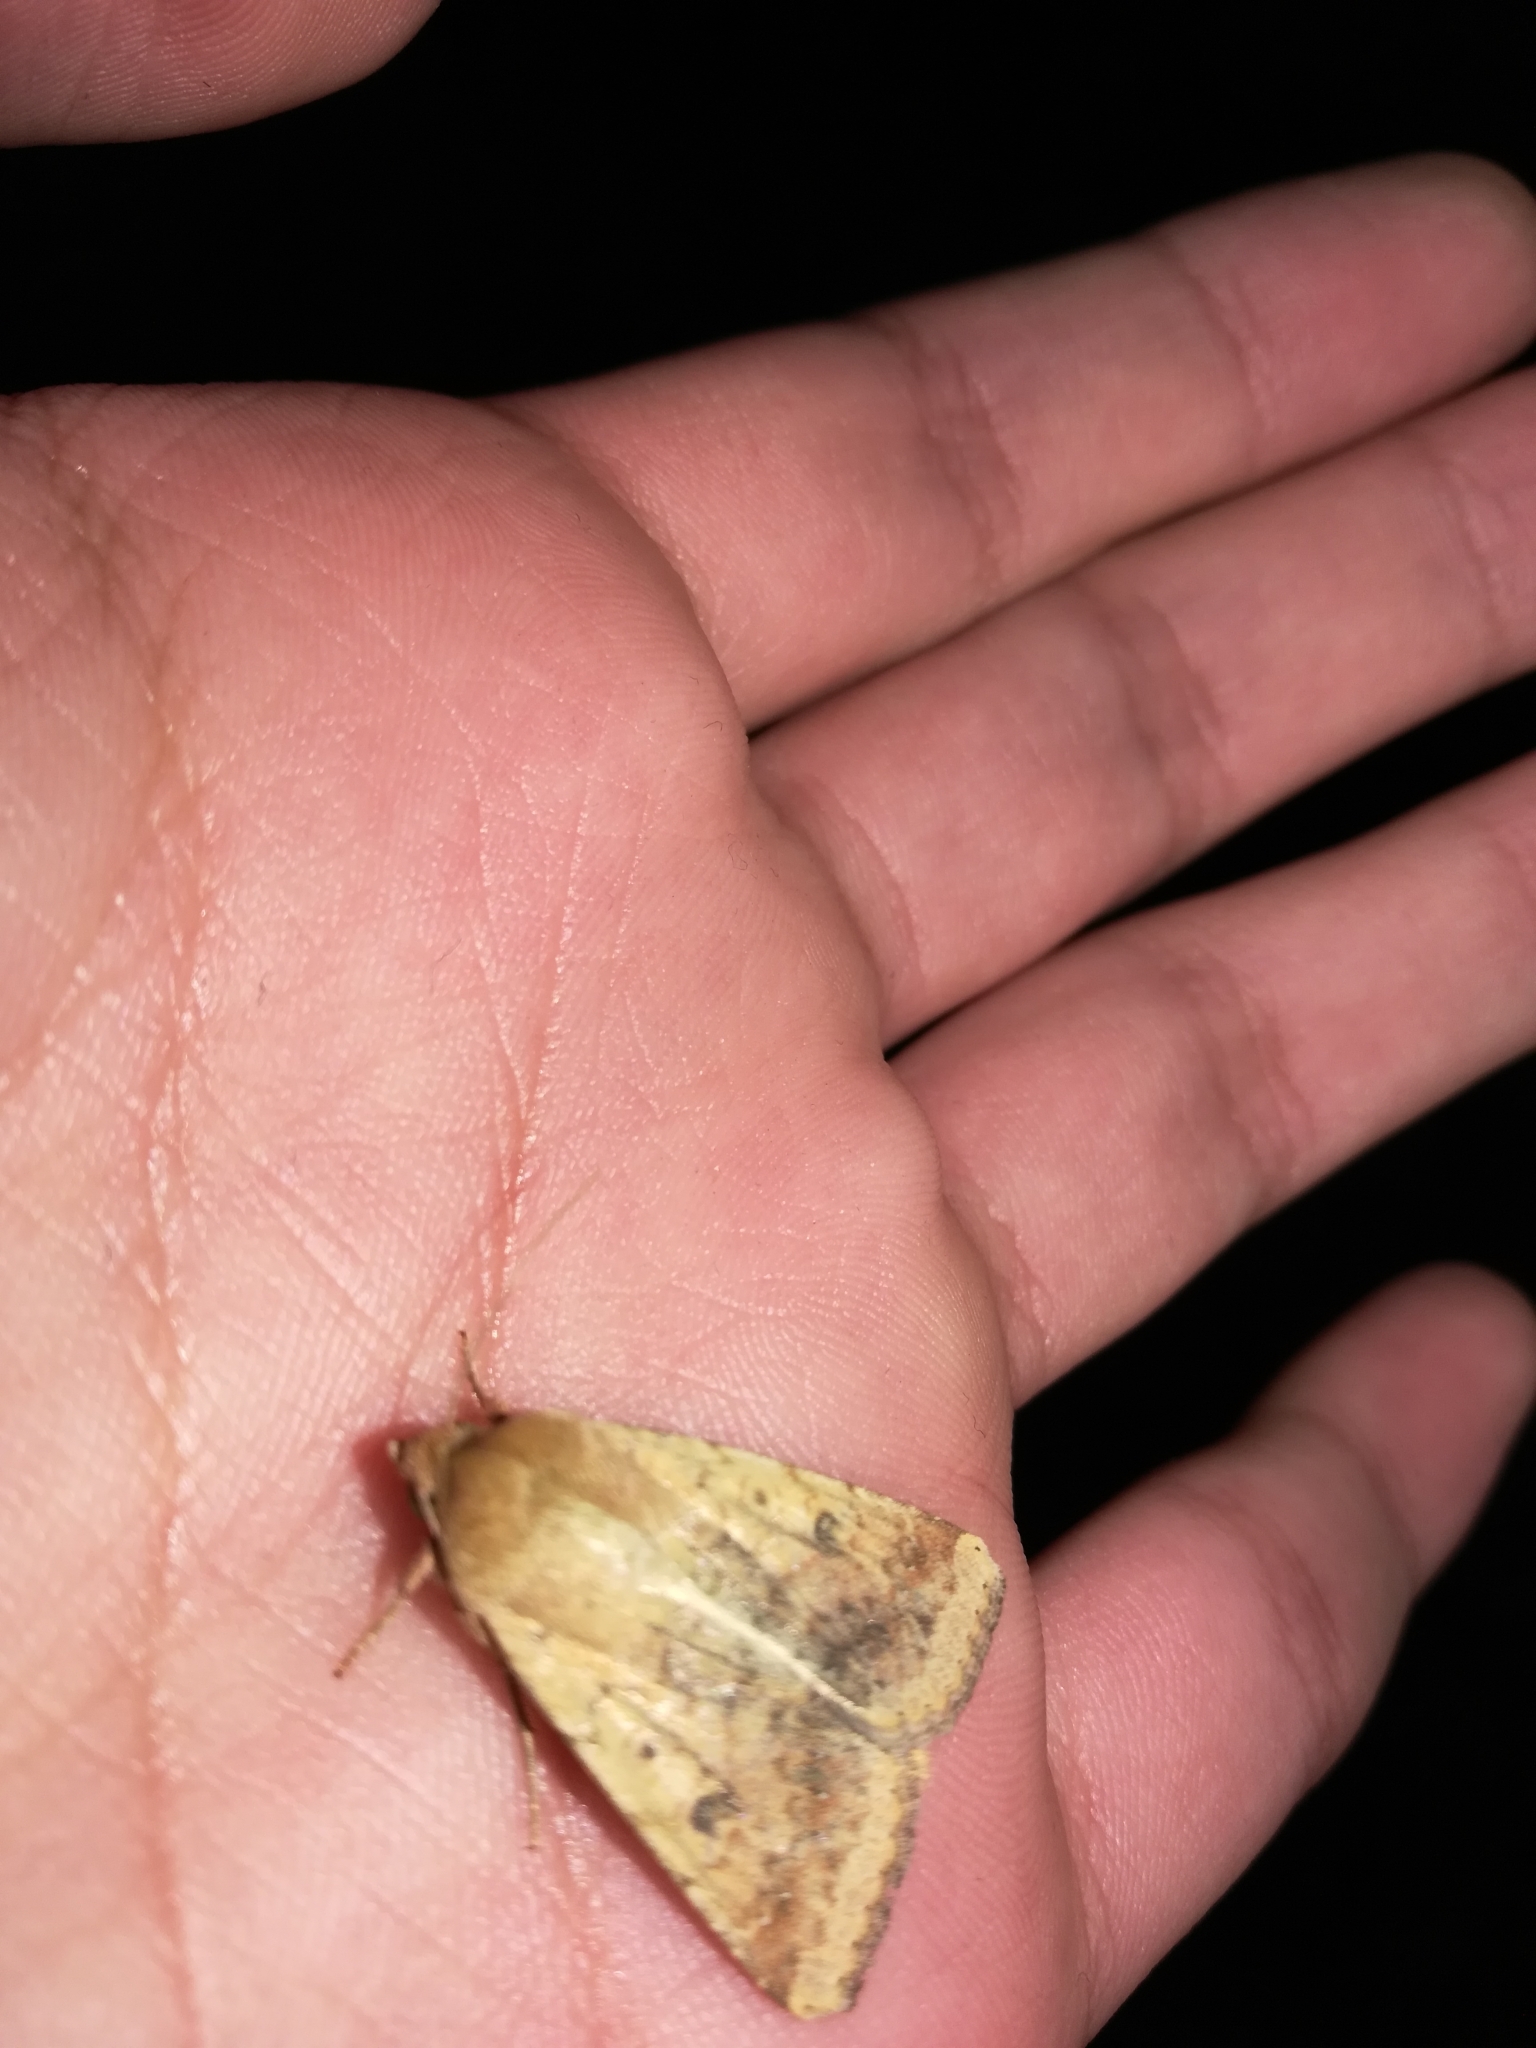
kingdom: Animalia
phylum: Arthropoda
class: Insecta
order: Lepidoptera
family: Noctuidae
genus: Helicoverpa
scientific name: Helicoverpa zea
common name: Bollworm
